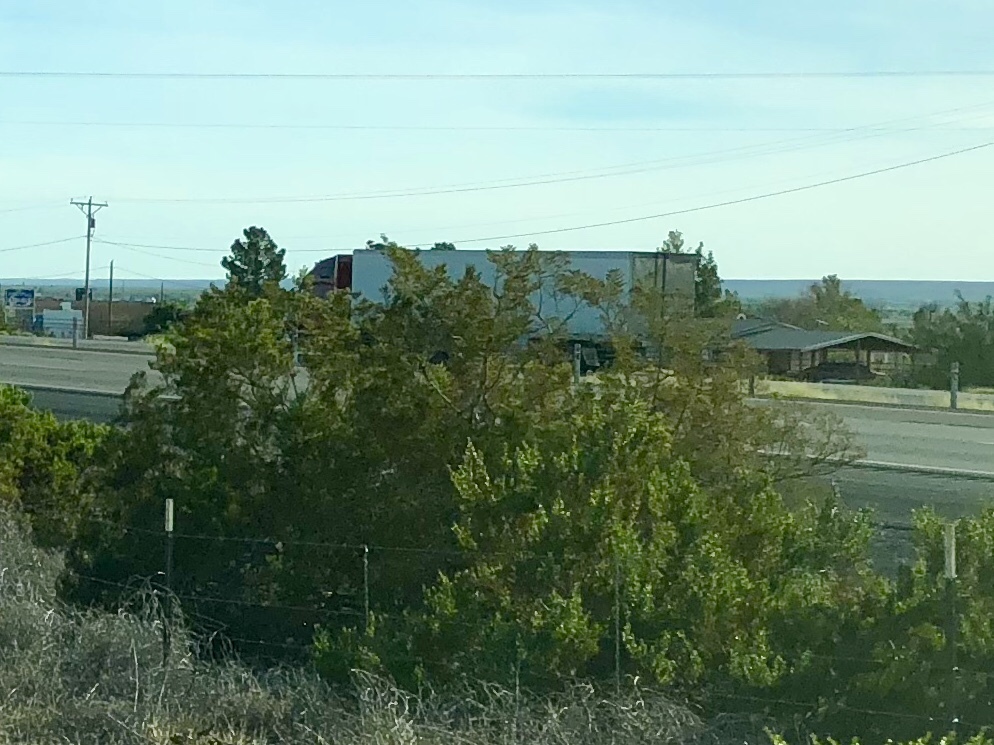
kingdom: Plantae
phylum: Tracheophyta
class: Magnoliopsida
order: Zygophyllales
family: Zygophyllaceae
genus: Larrea
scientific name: Larrea tridentata
